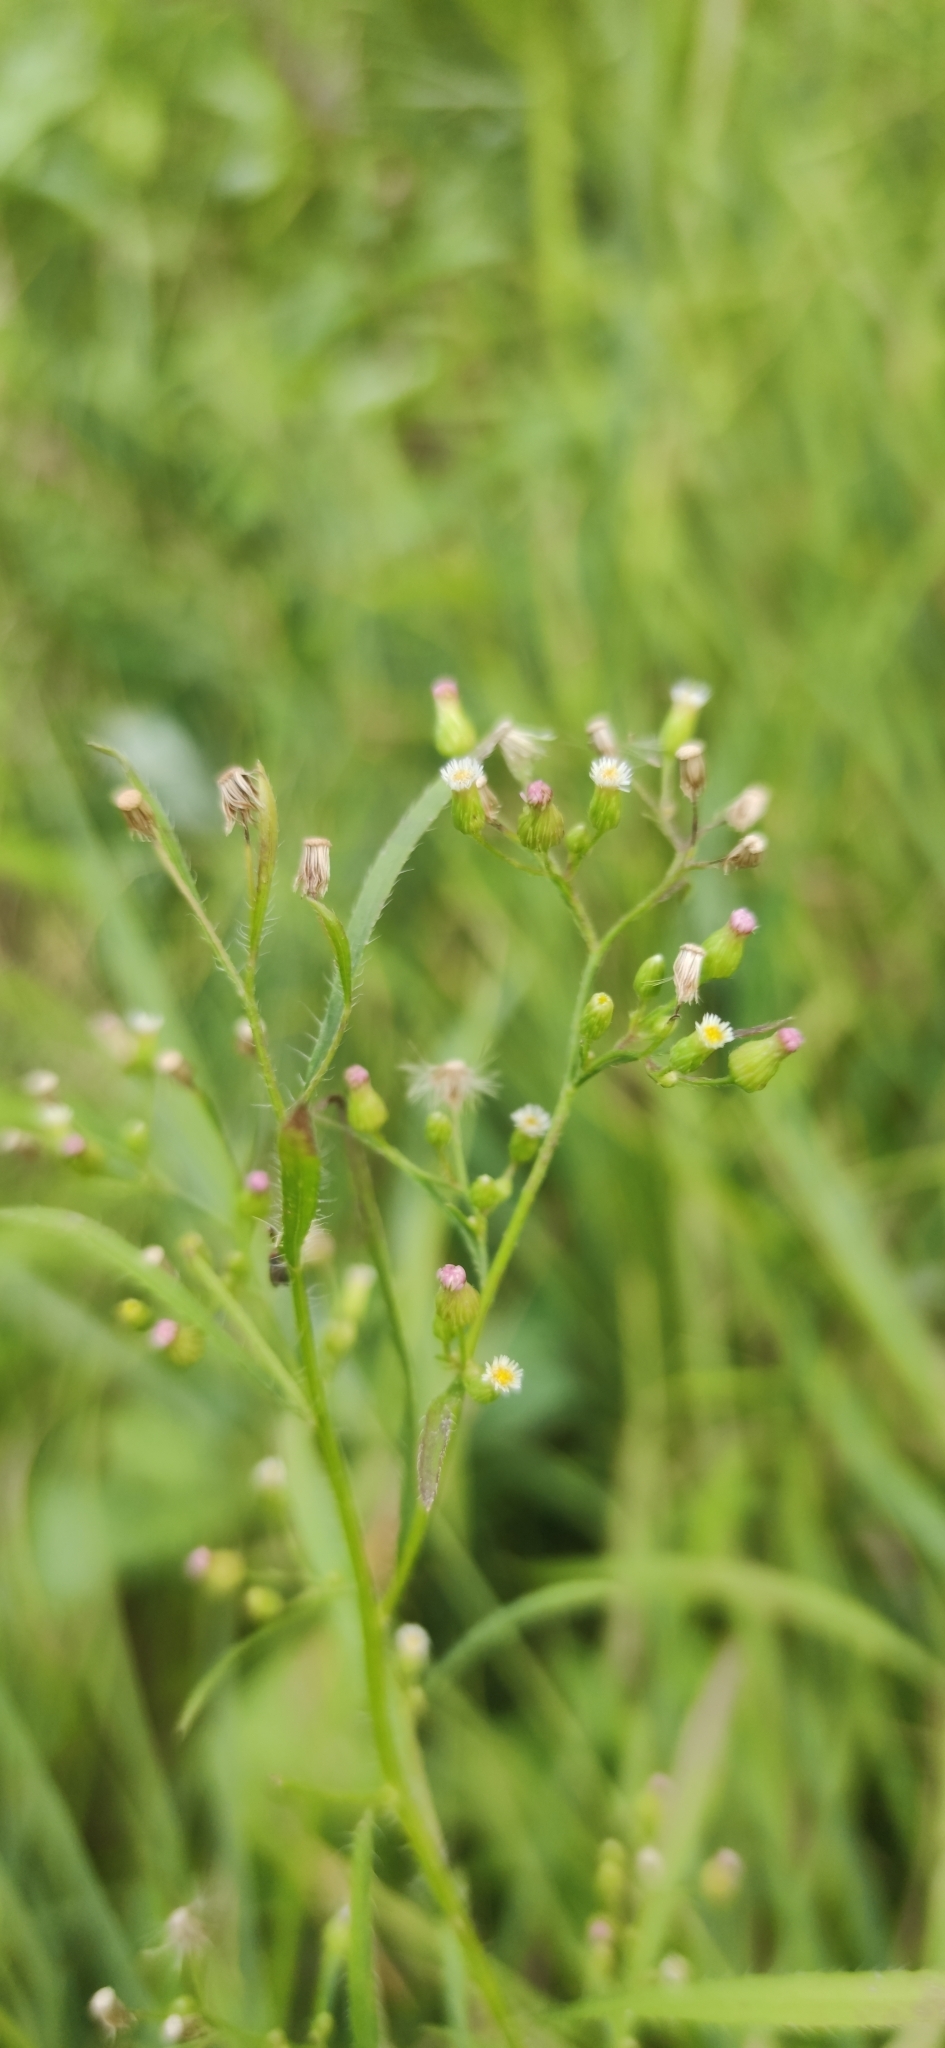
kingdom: Plantae
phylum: Tracheophyta
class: Magnoliopsida
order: Asterales
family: Asteraceae
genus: Erigeron
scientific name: Erigeron canadensis
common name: Canadian fleabane
